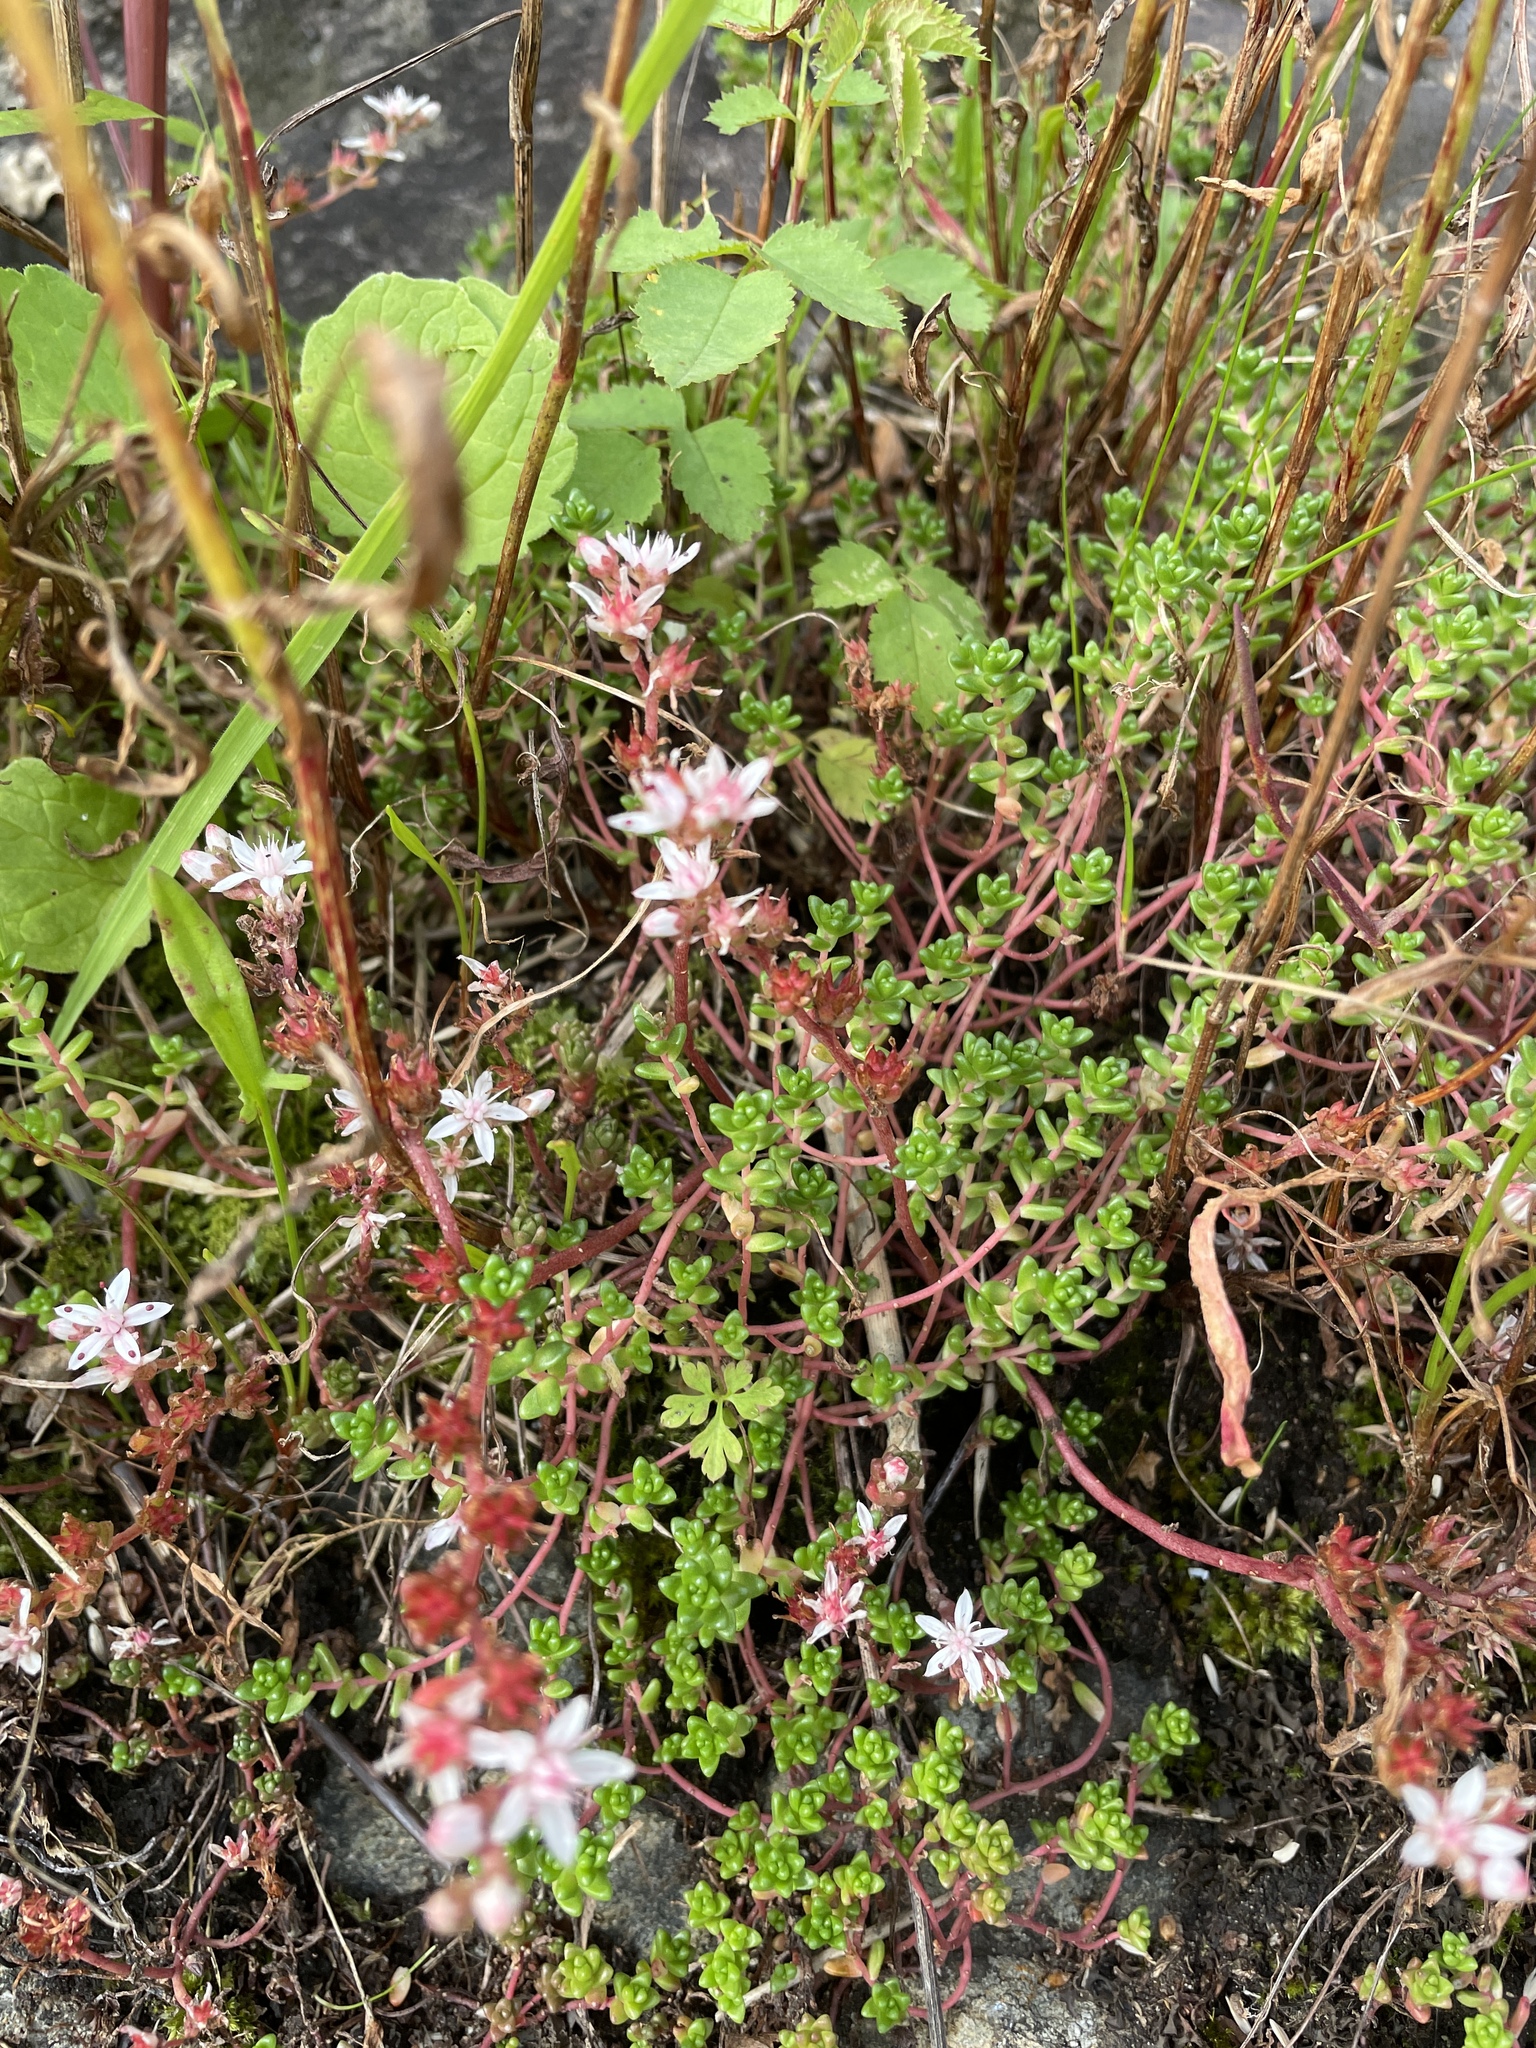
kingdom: Plantae
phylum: Tracheophyta
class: Magnoliopsida
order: Saxifragales
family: Crassulaceae
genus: Sedum
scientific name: Sedum anglicum
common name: English stonecrop
